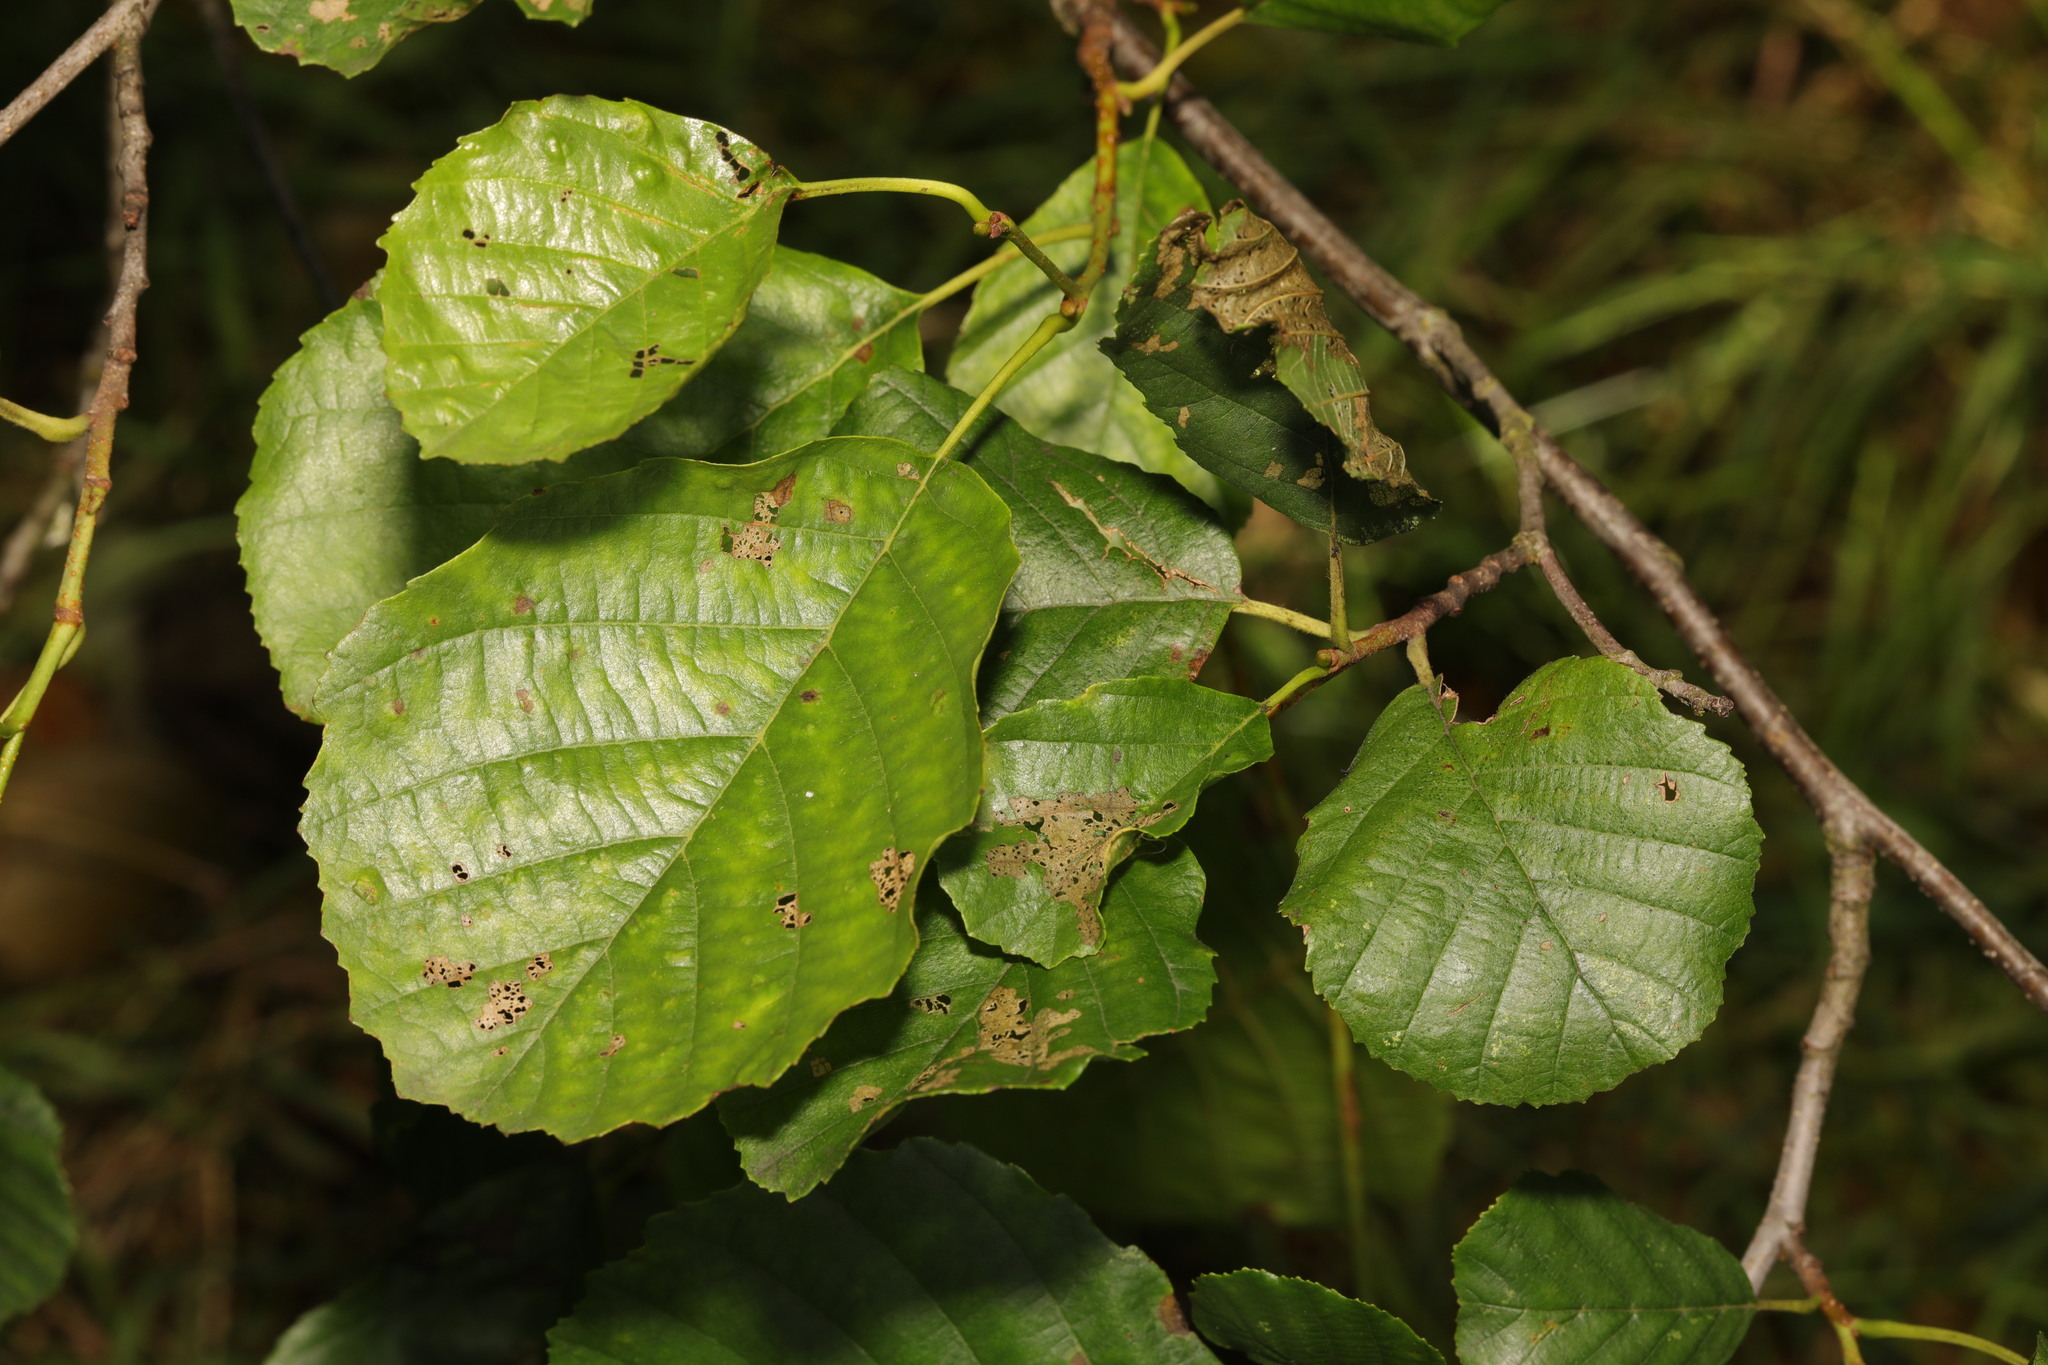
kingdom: Plantae
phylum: Tracheophyta
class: Magnoliopsida
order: Fagales
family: Betulaceae
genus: Alnus
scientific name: Alnus glutinosa
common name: Black alder
